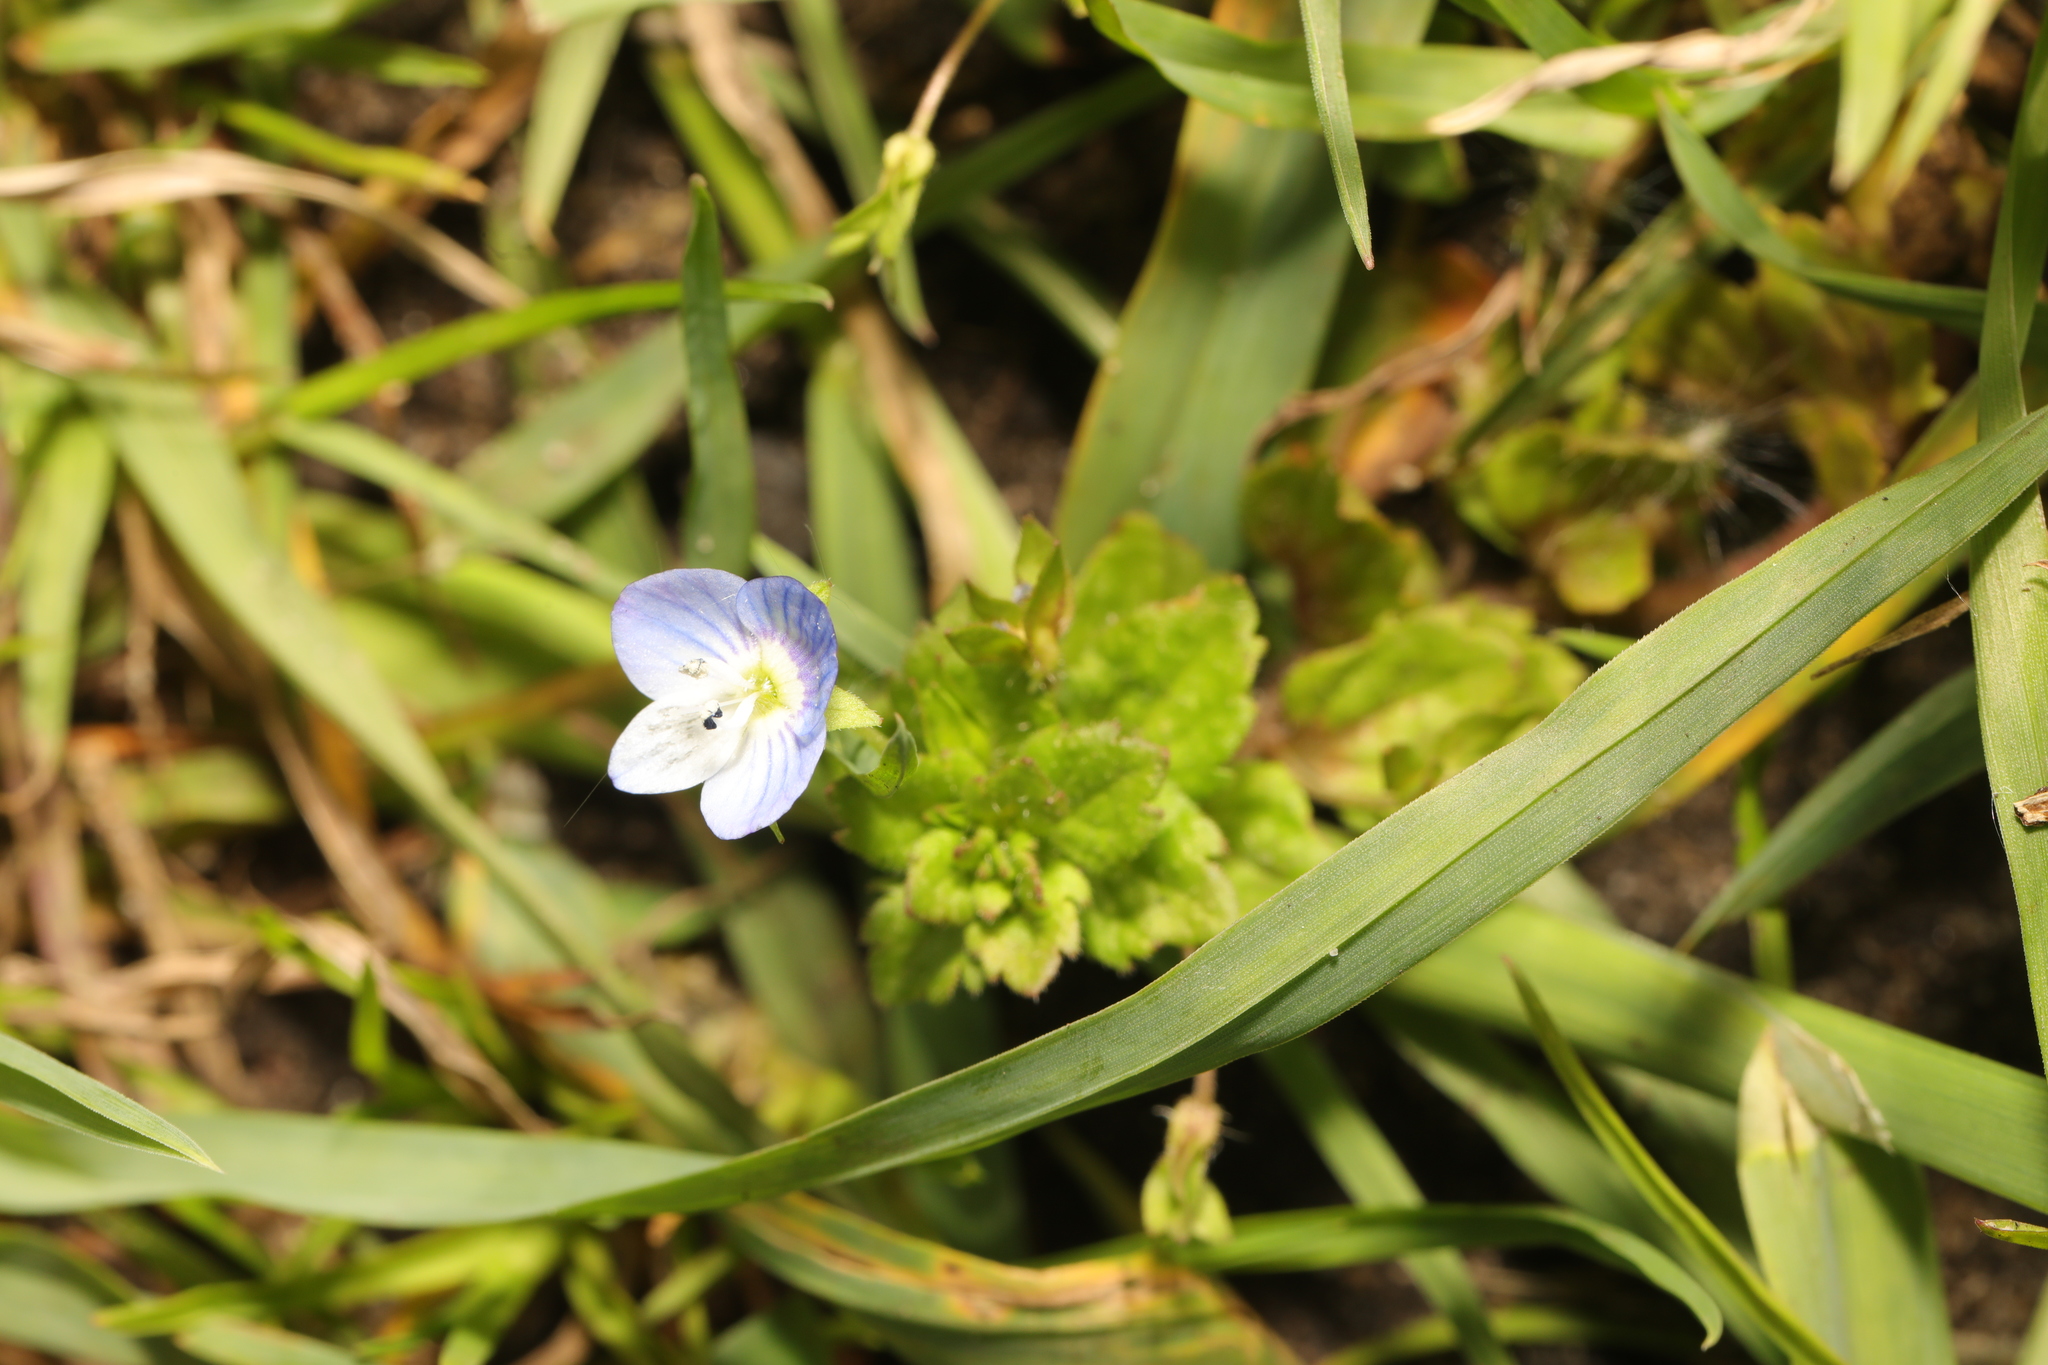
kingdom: Plantae
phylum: Tracheophyta
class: Magnoliopsida
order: Lamiales
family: Plantaginaceae
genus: Veronica
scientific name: Veronica persica
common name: Common field-speedwell
